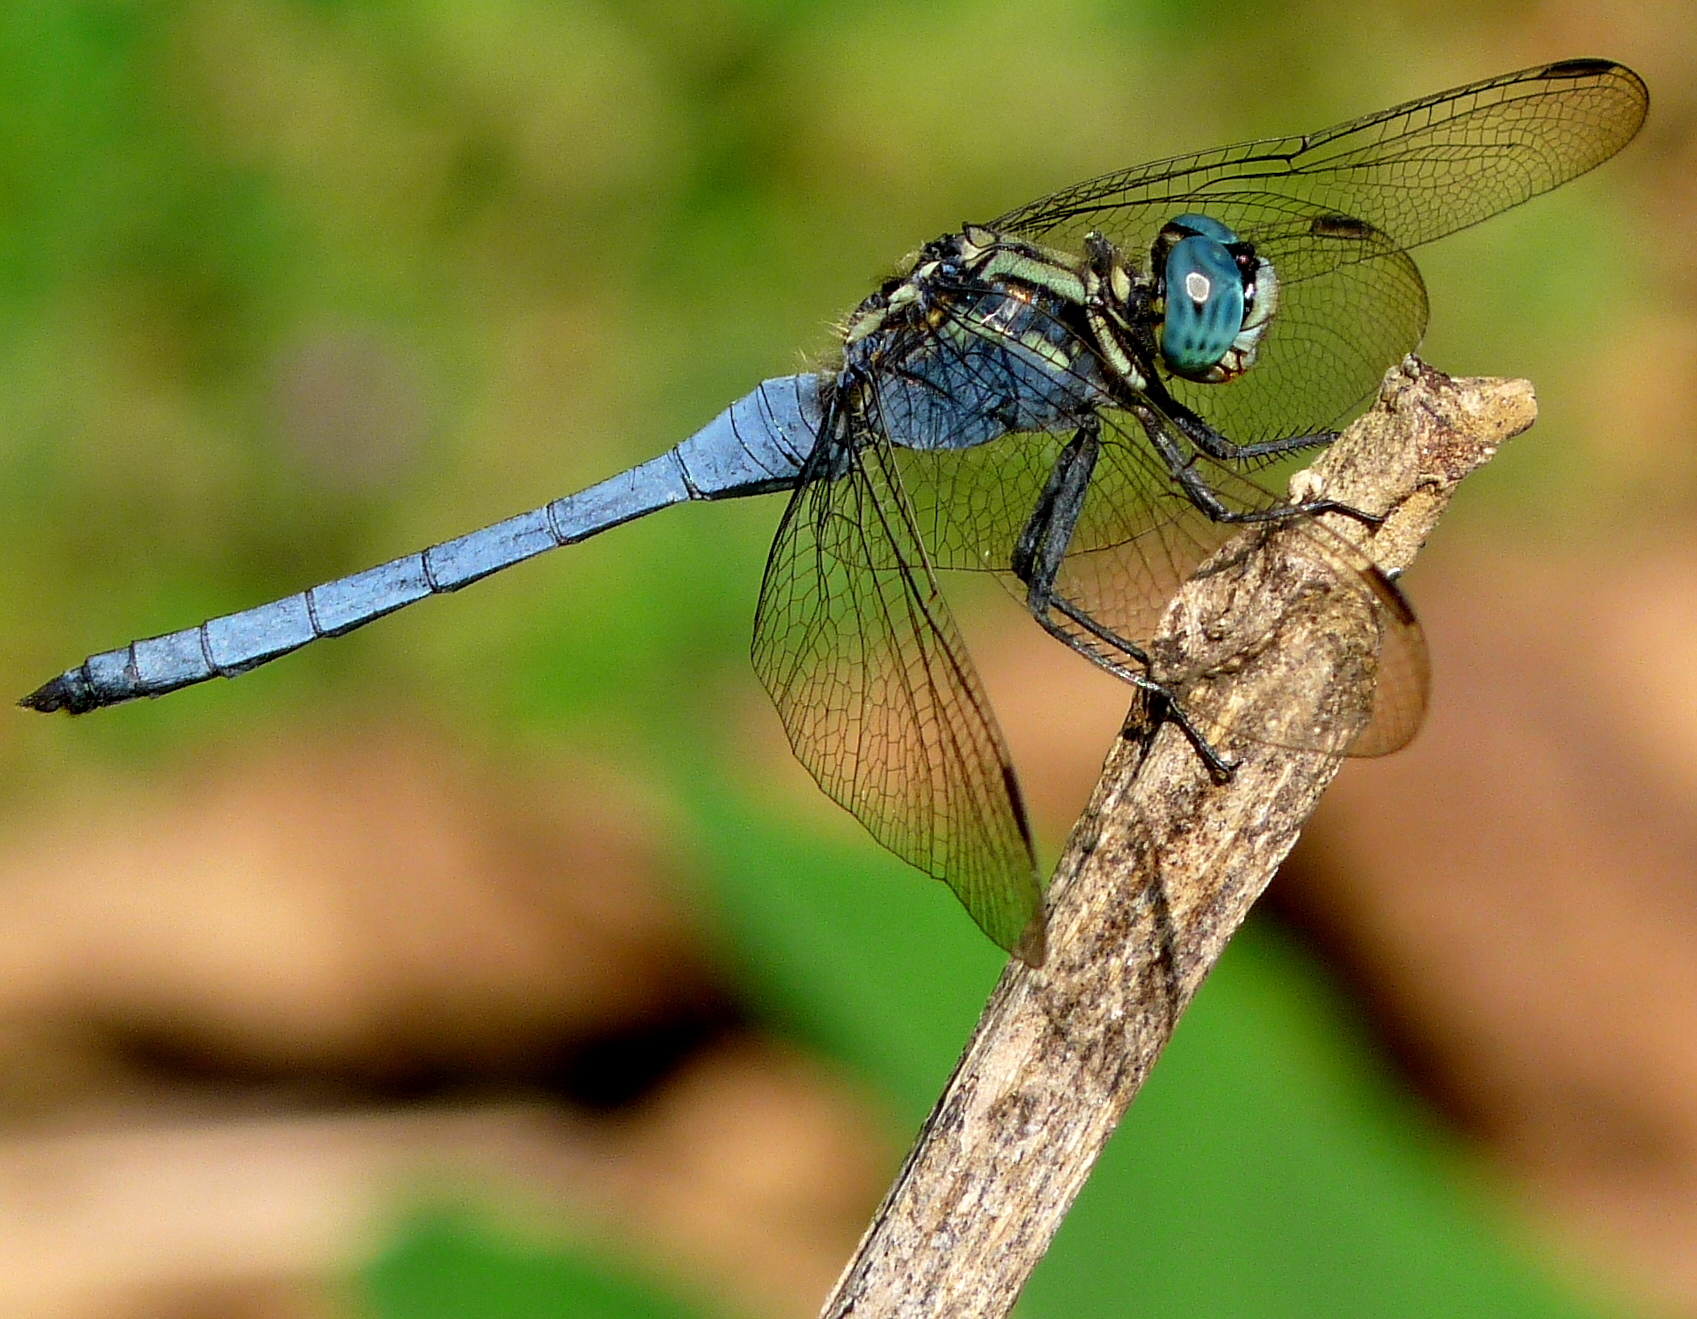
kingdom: Animalia
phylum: Arthropoda
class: Insecta
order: Odonata
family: Libellulidae
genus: Orthetrum
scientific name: Orthetrum luzonicum
